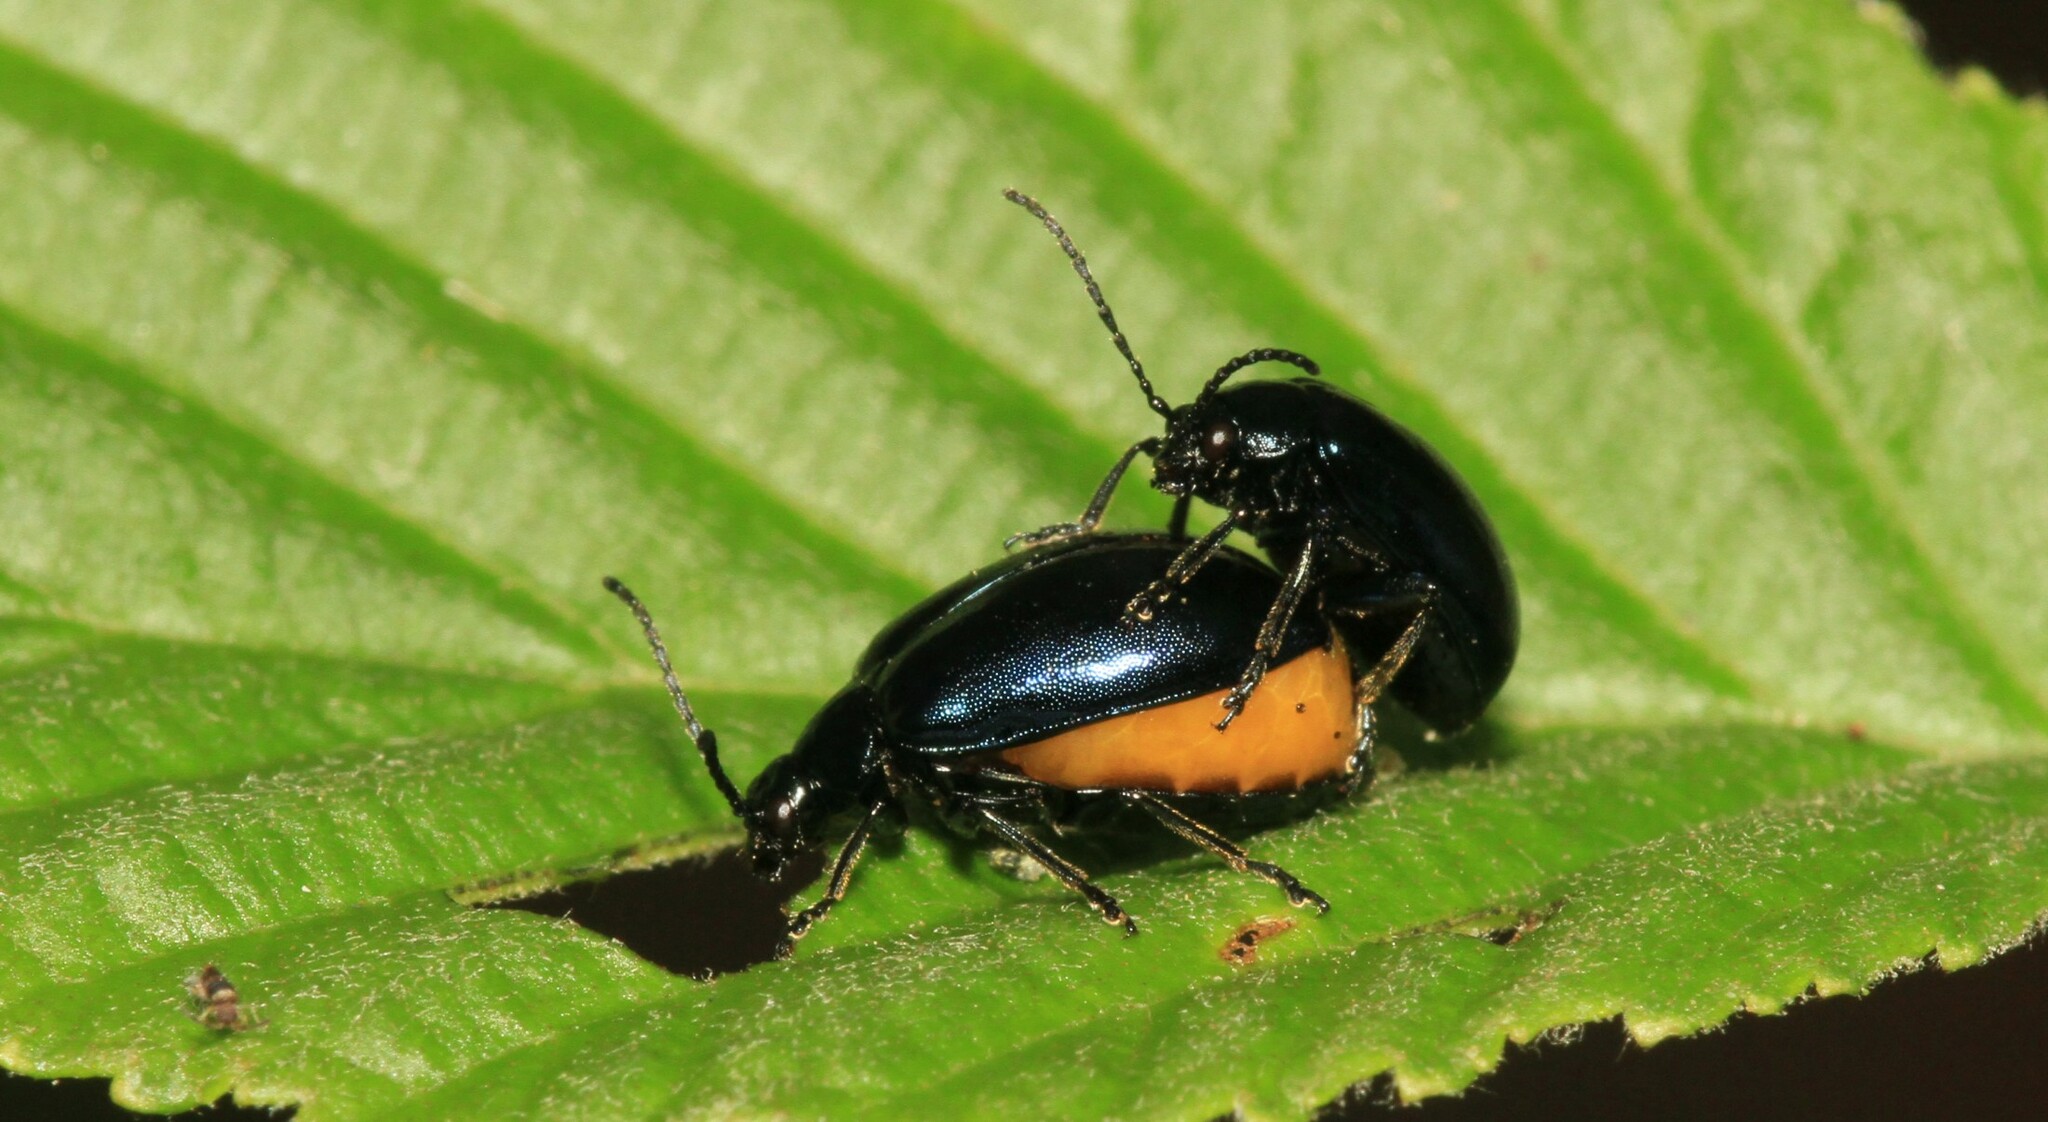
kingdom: Animalia
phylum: Arthropoda
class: Insecta
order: Coleoptera
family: Chrysomelidae
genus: Agelastica
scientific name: Agelastica alni
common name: Alder leaf beetle
